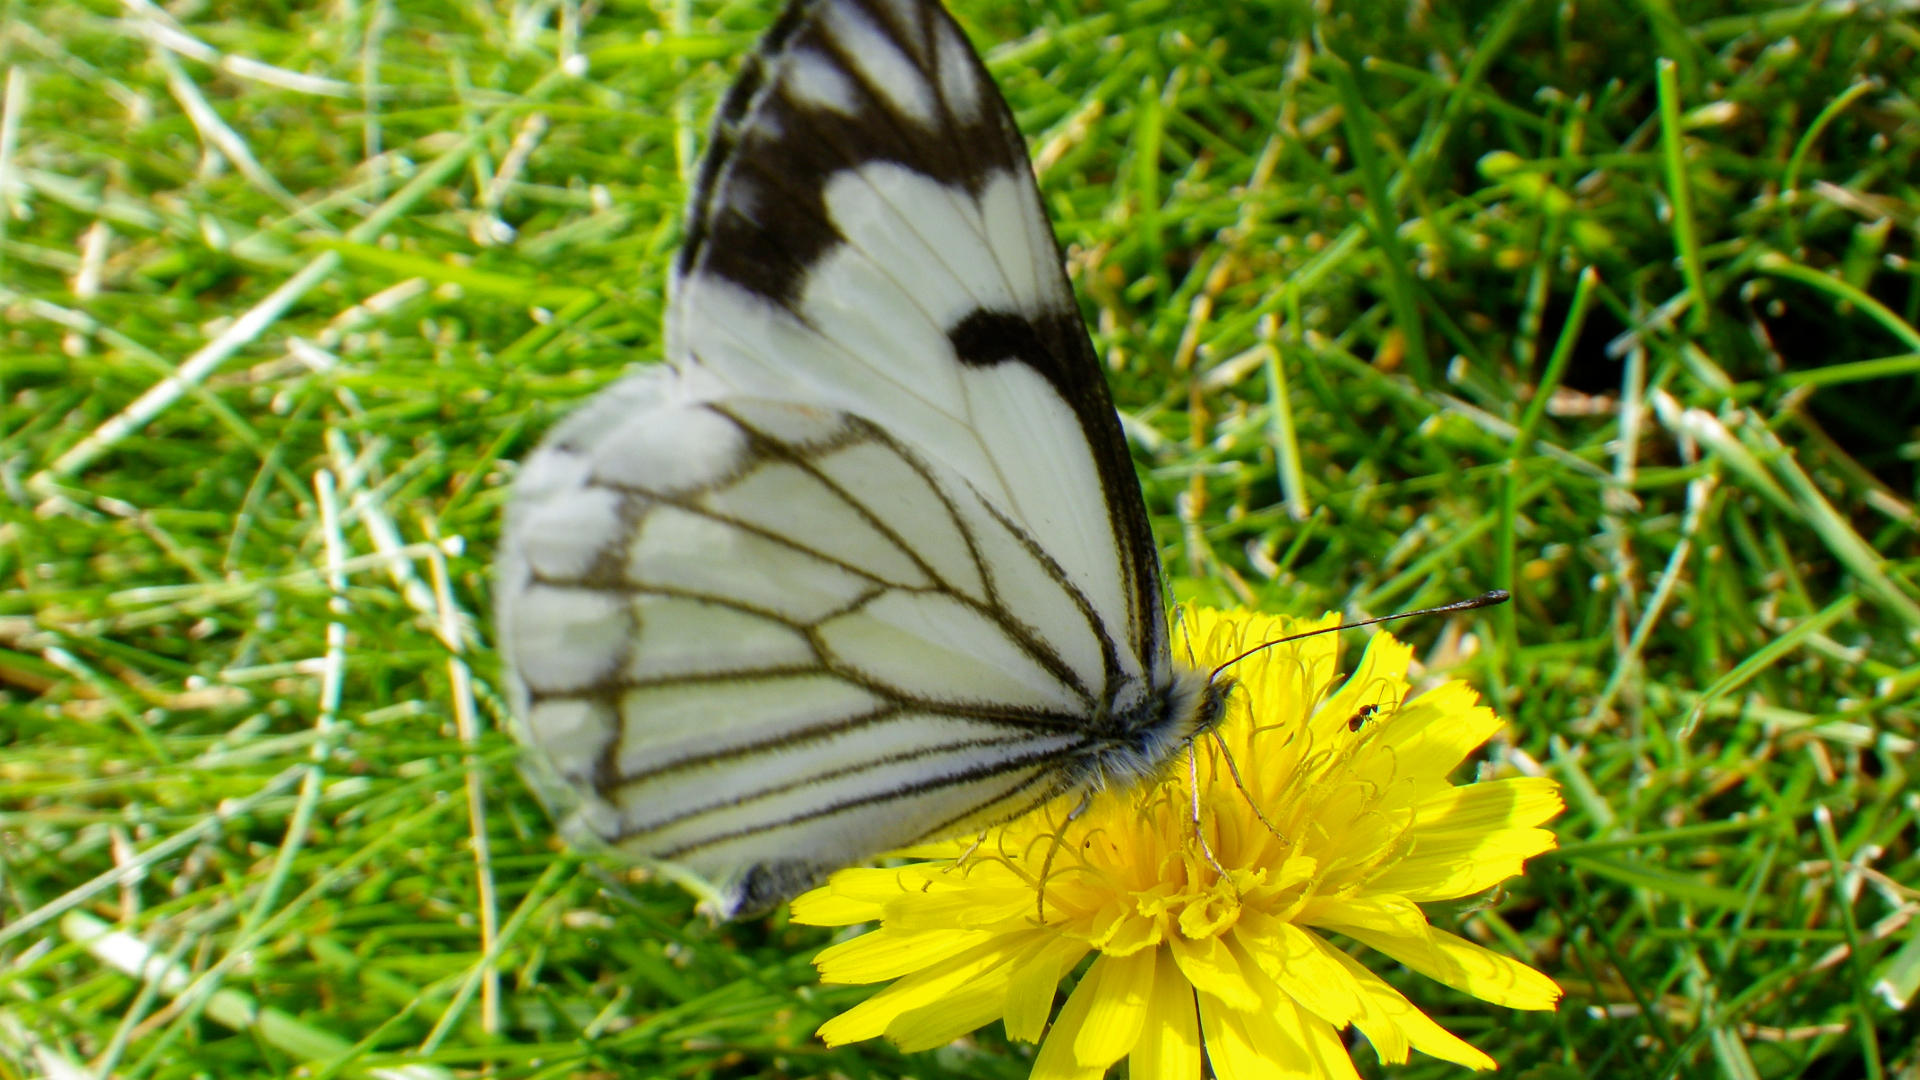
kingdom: Animalia
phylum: Arthropoda
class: Insecta
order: Lepidoptera
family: Pieridae
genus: Neophasia
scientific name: Neophasia menapia
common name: Pine white
